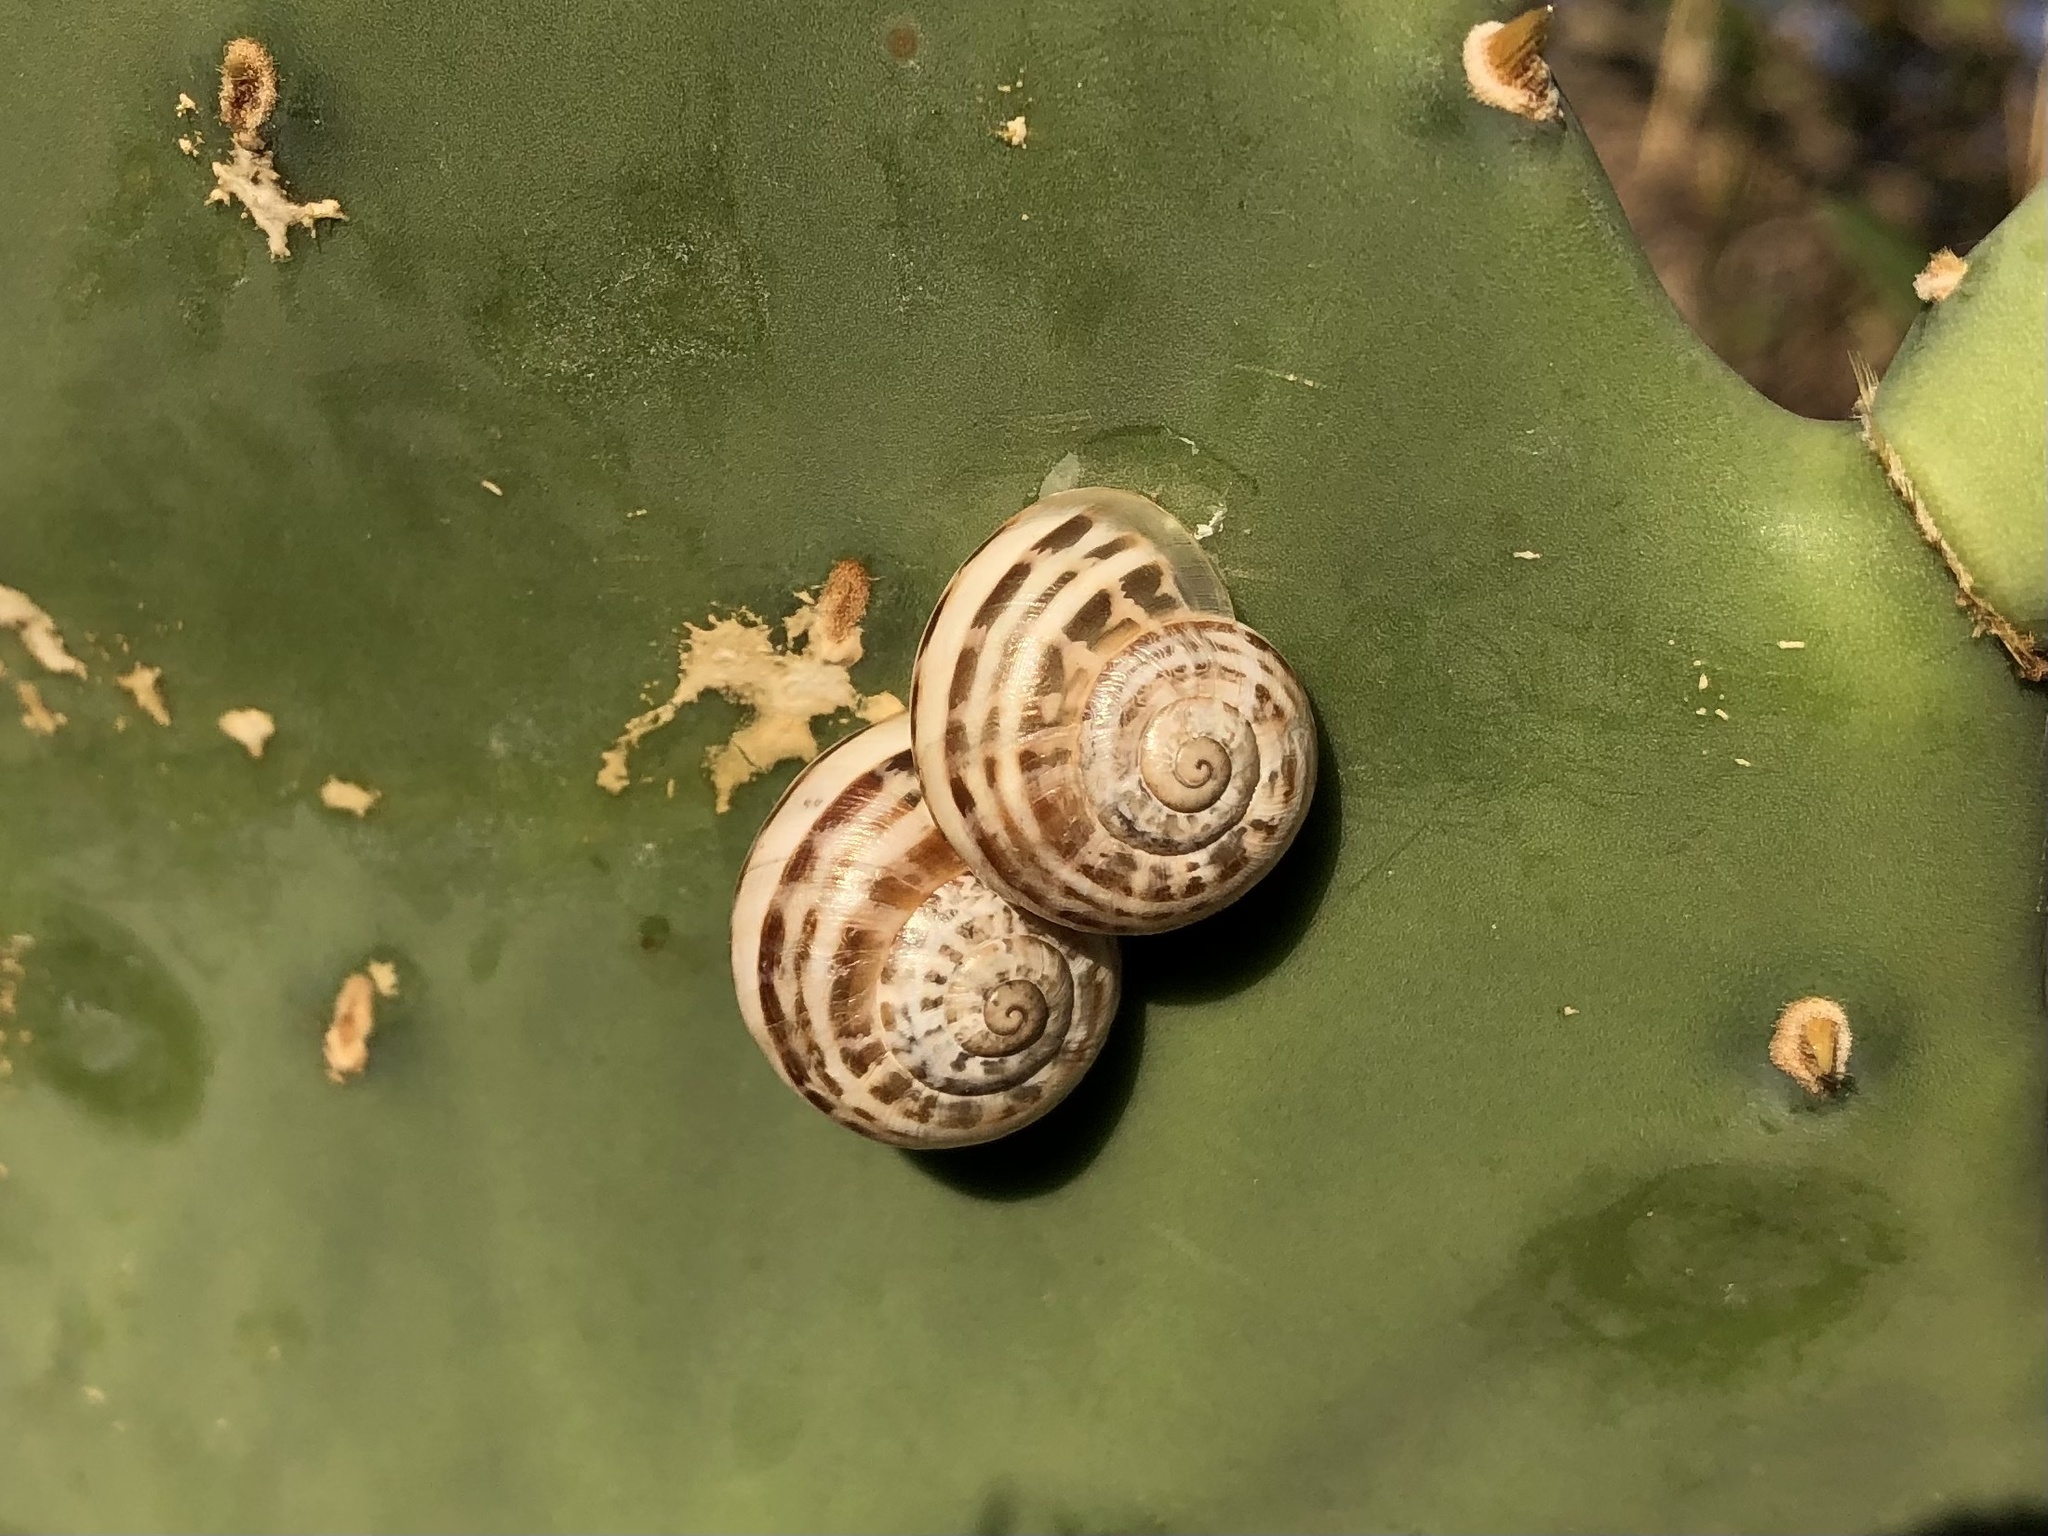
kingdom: Animalia
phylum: Mollusca
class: Gastropoda
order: Stylommatophora
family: Helicidae
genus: Eobania
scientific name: Eobania vermiculata
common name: Chocolateband snail
